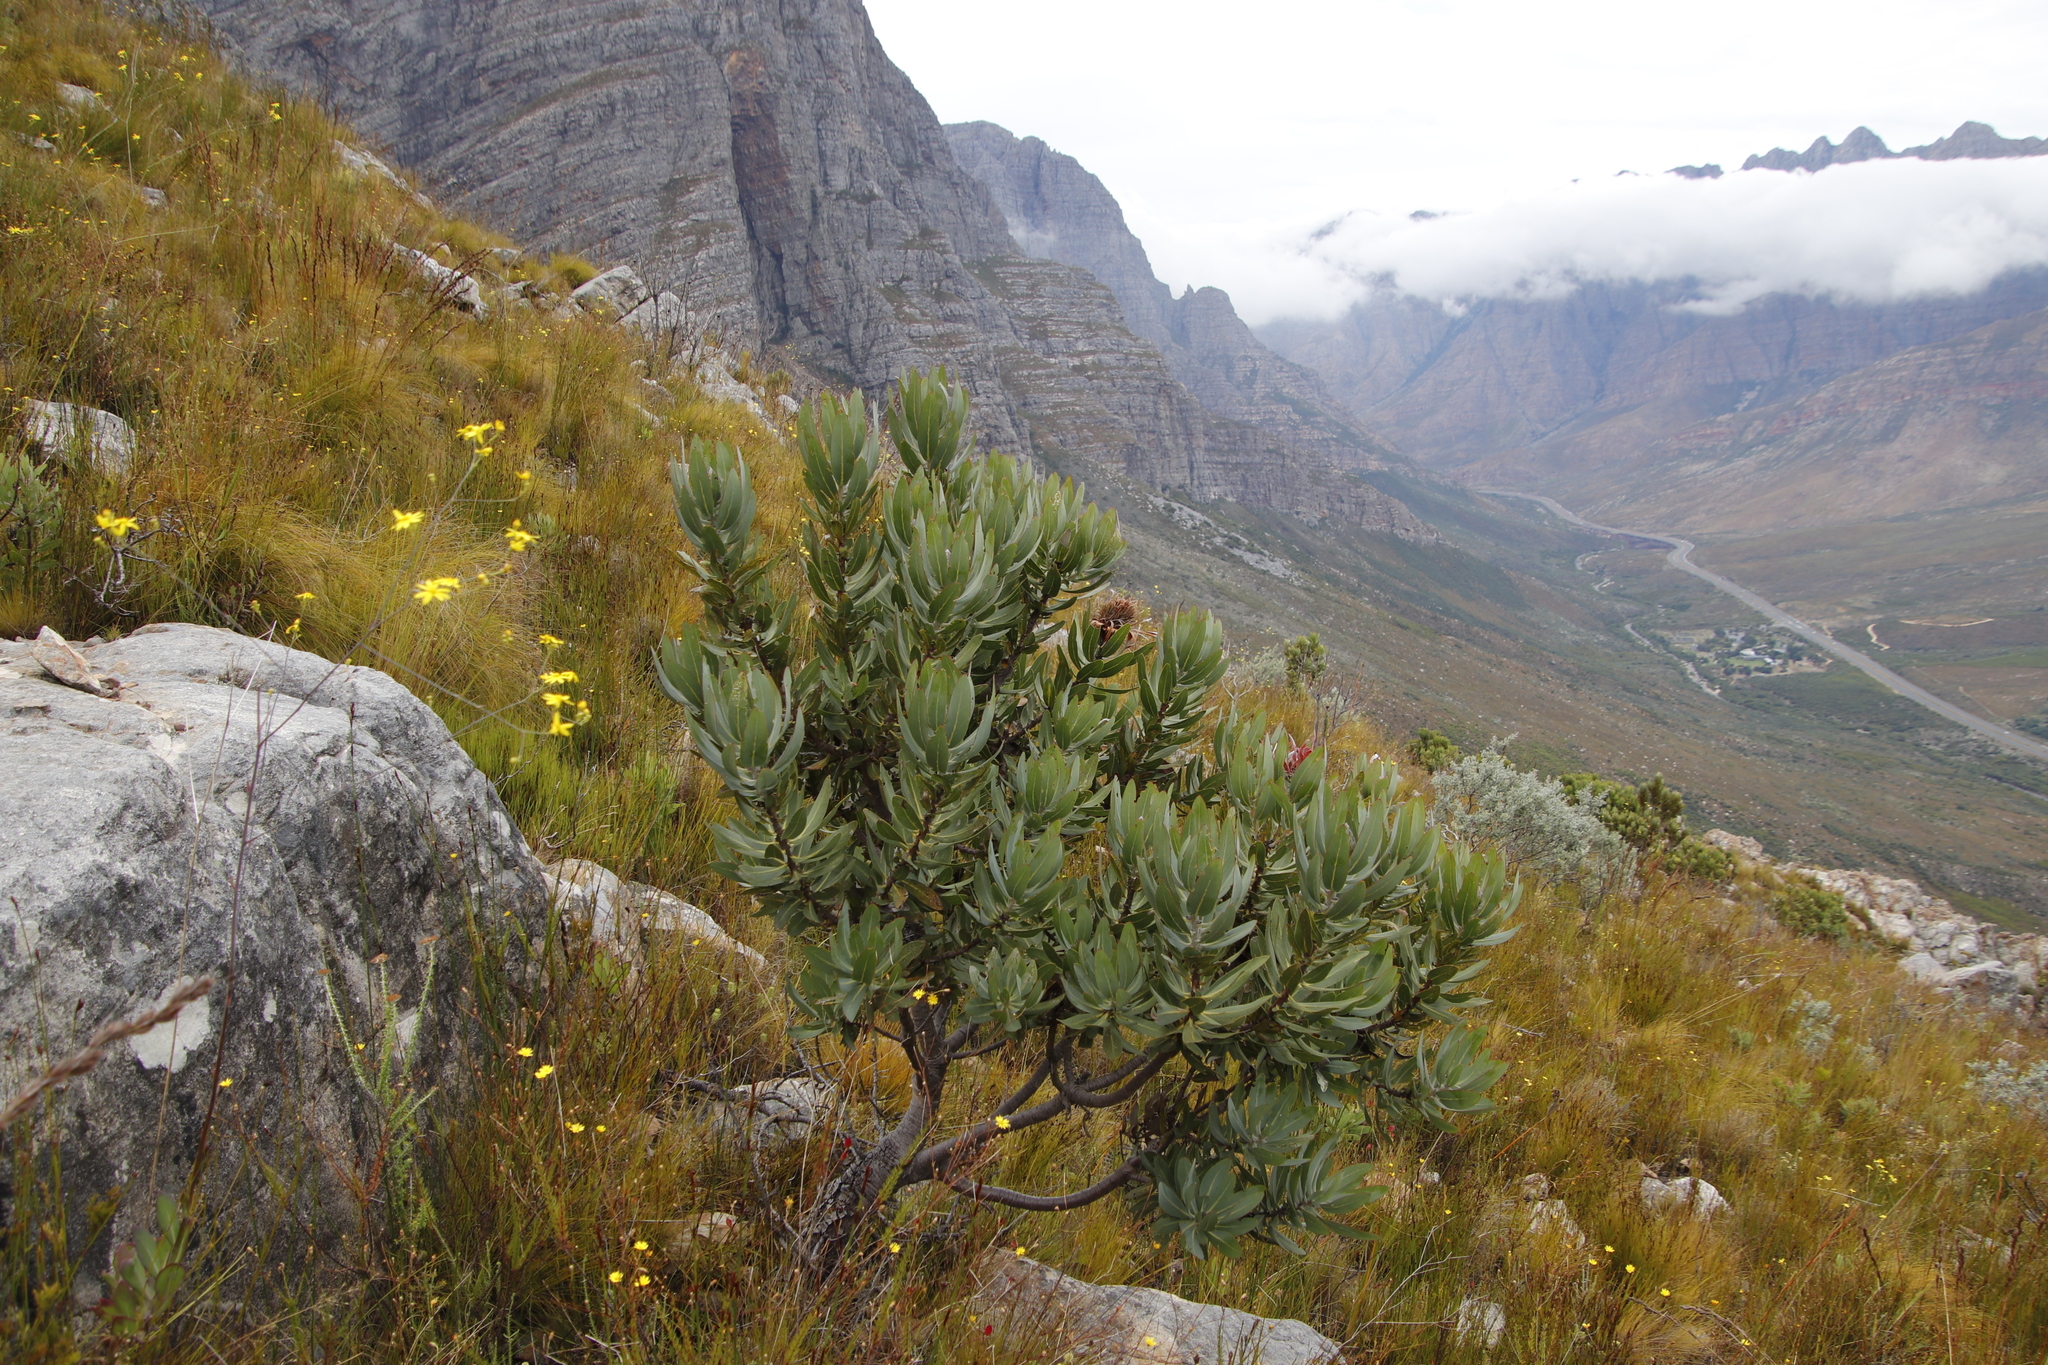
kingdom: Plantae
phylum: Tracheophyta
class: Magnoliopsida
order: Proteales
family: Proteaceae
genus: Protea
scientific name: Protea laurifolia
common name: Grey-leaf sugarbsh
